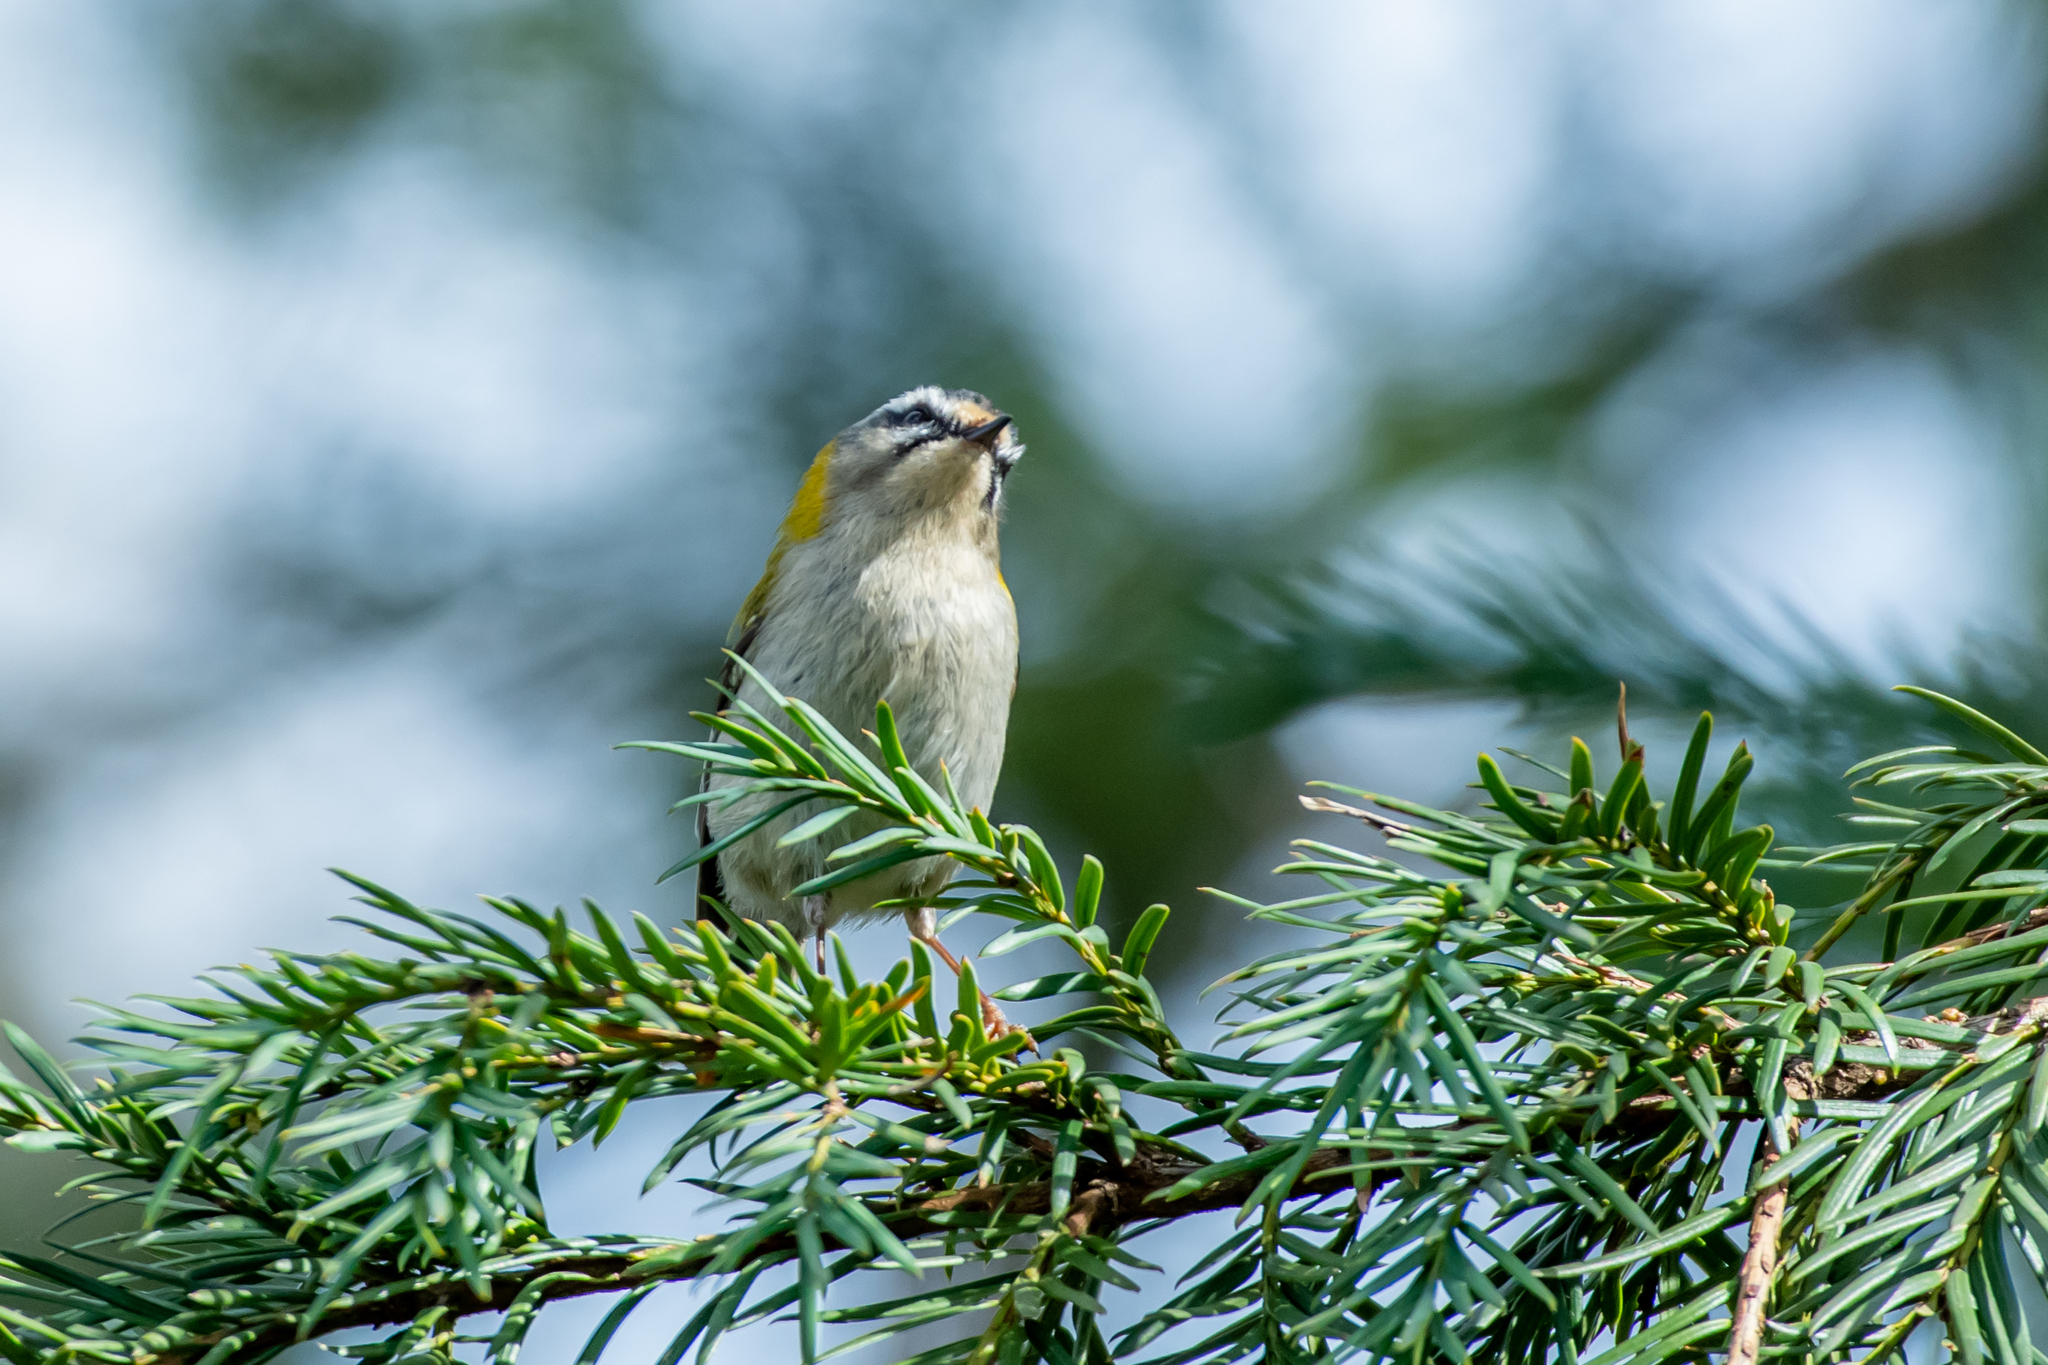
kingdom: Animalia
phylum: Chordata
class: Aves
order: Passeriformes
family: Regulidae
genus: Regulus
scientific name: Regulus ignicapilla
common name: Firecrest
